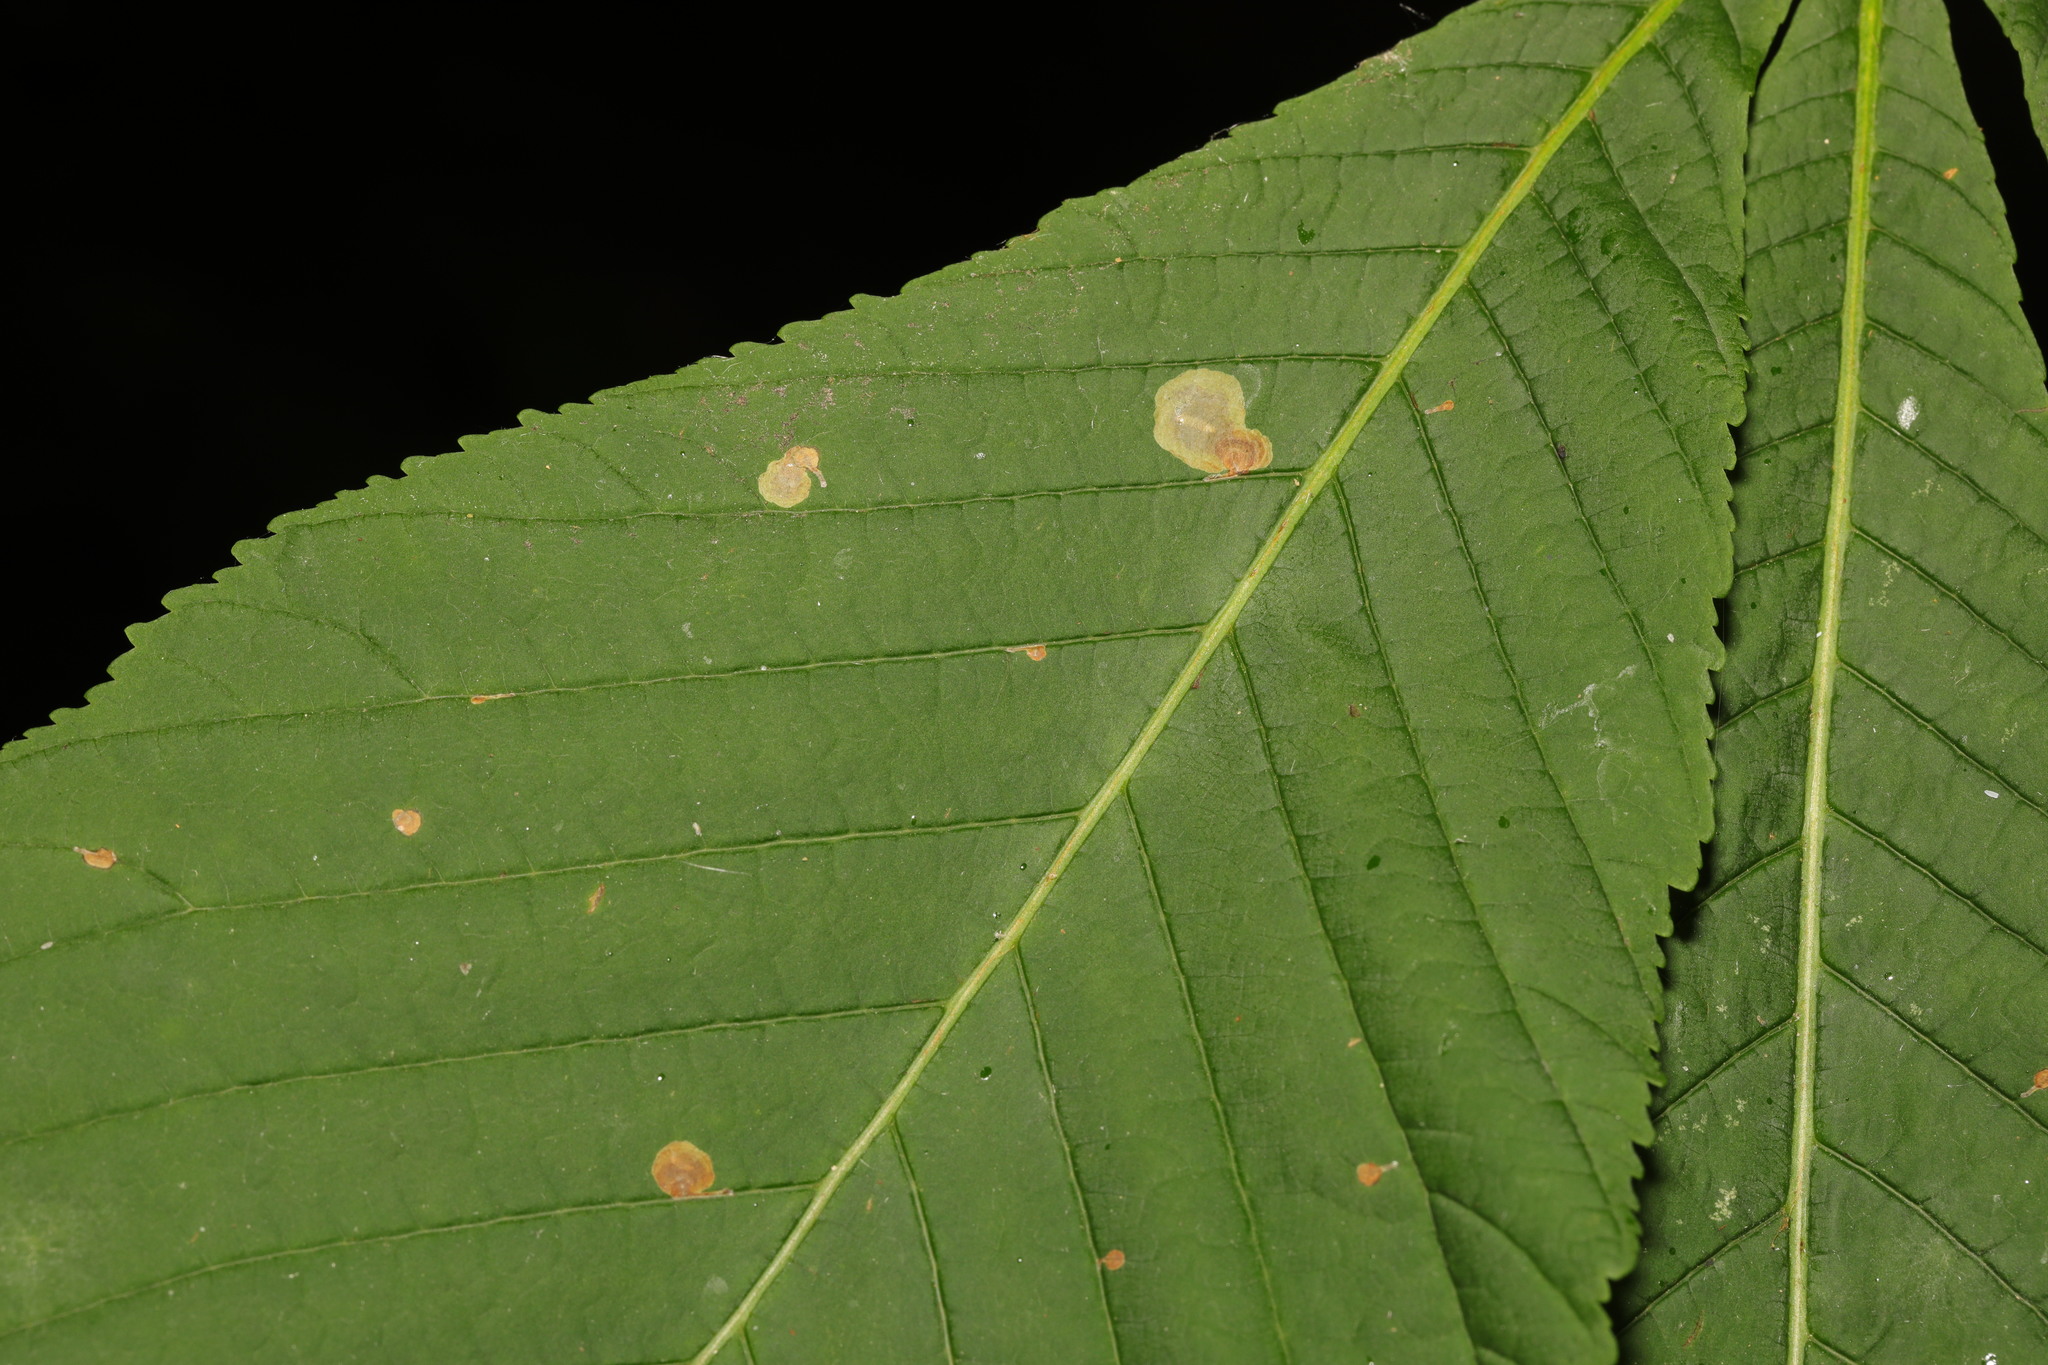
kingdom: Animalia
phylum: Arthropoda
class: Insecta
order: Lepidoptera
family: Gracillariidae
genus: Cameraria
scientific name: Cameraria ohridella
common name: Horse-chestnut leaf-miner
